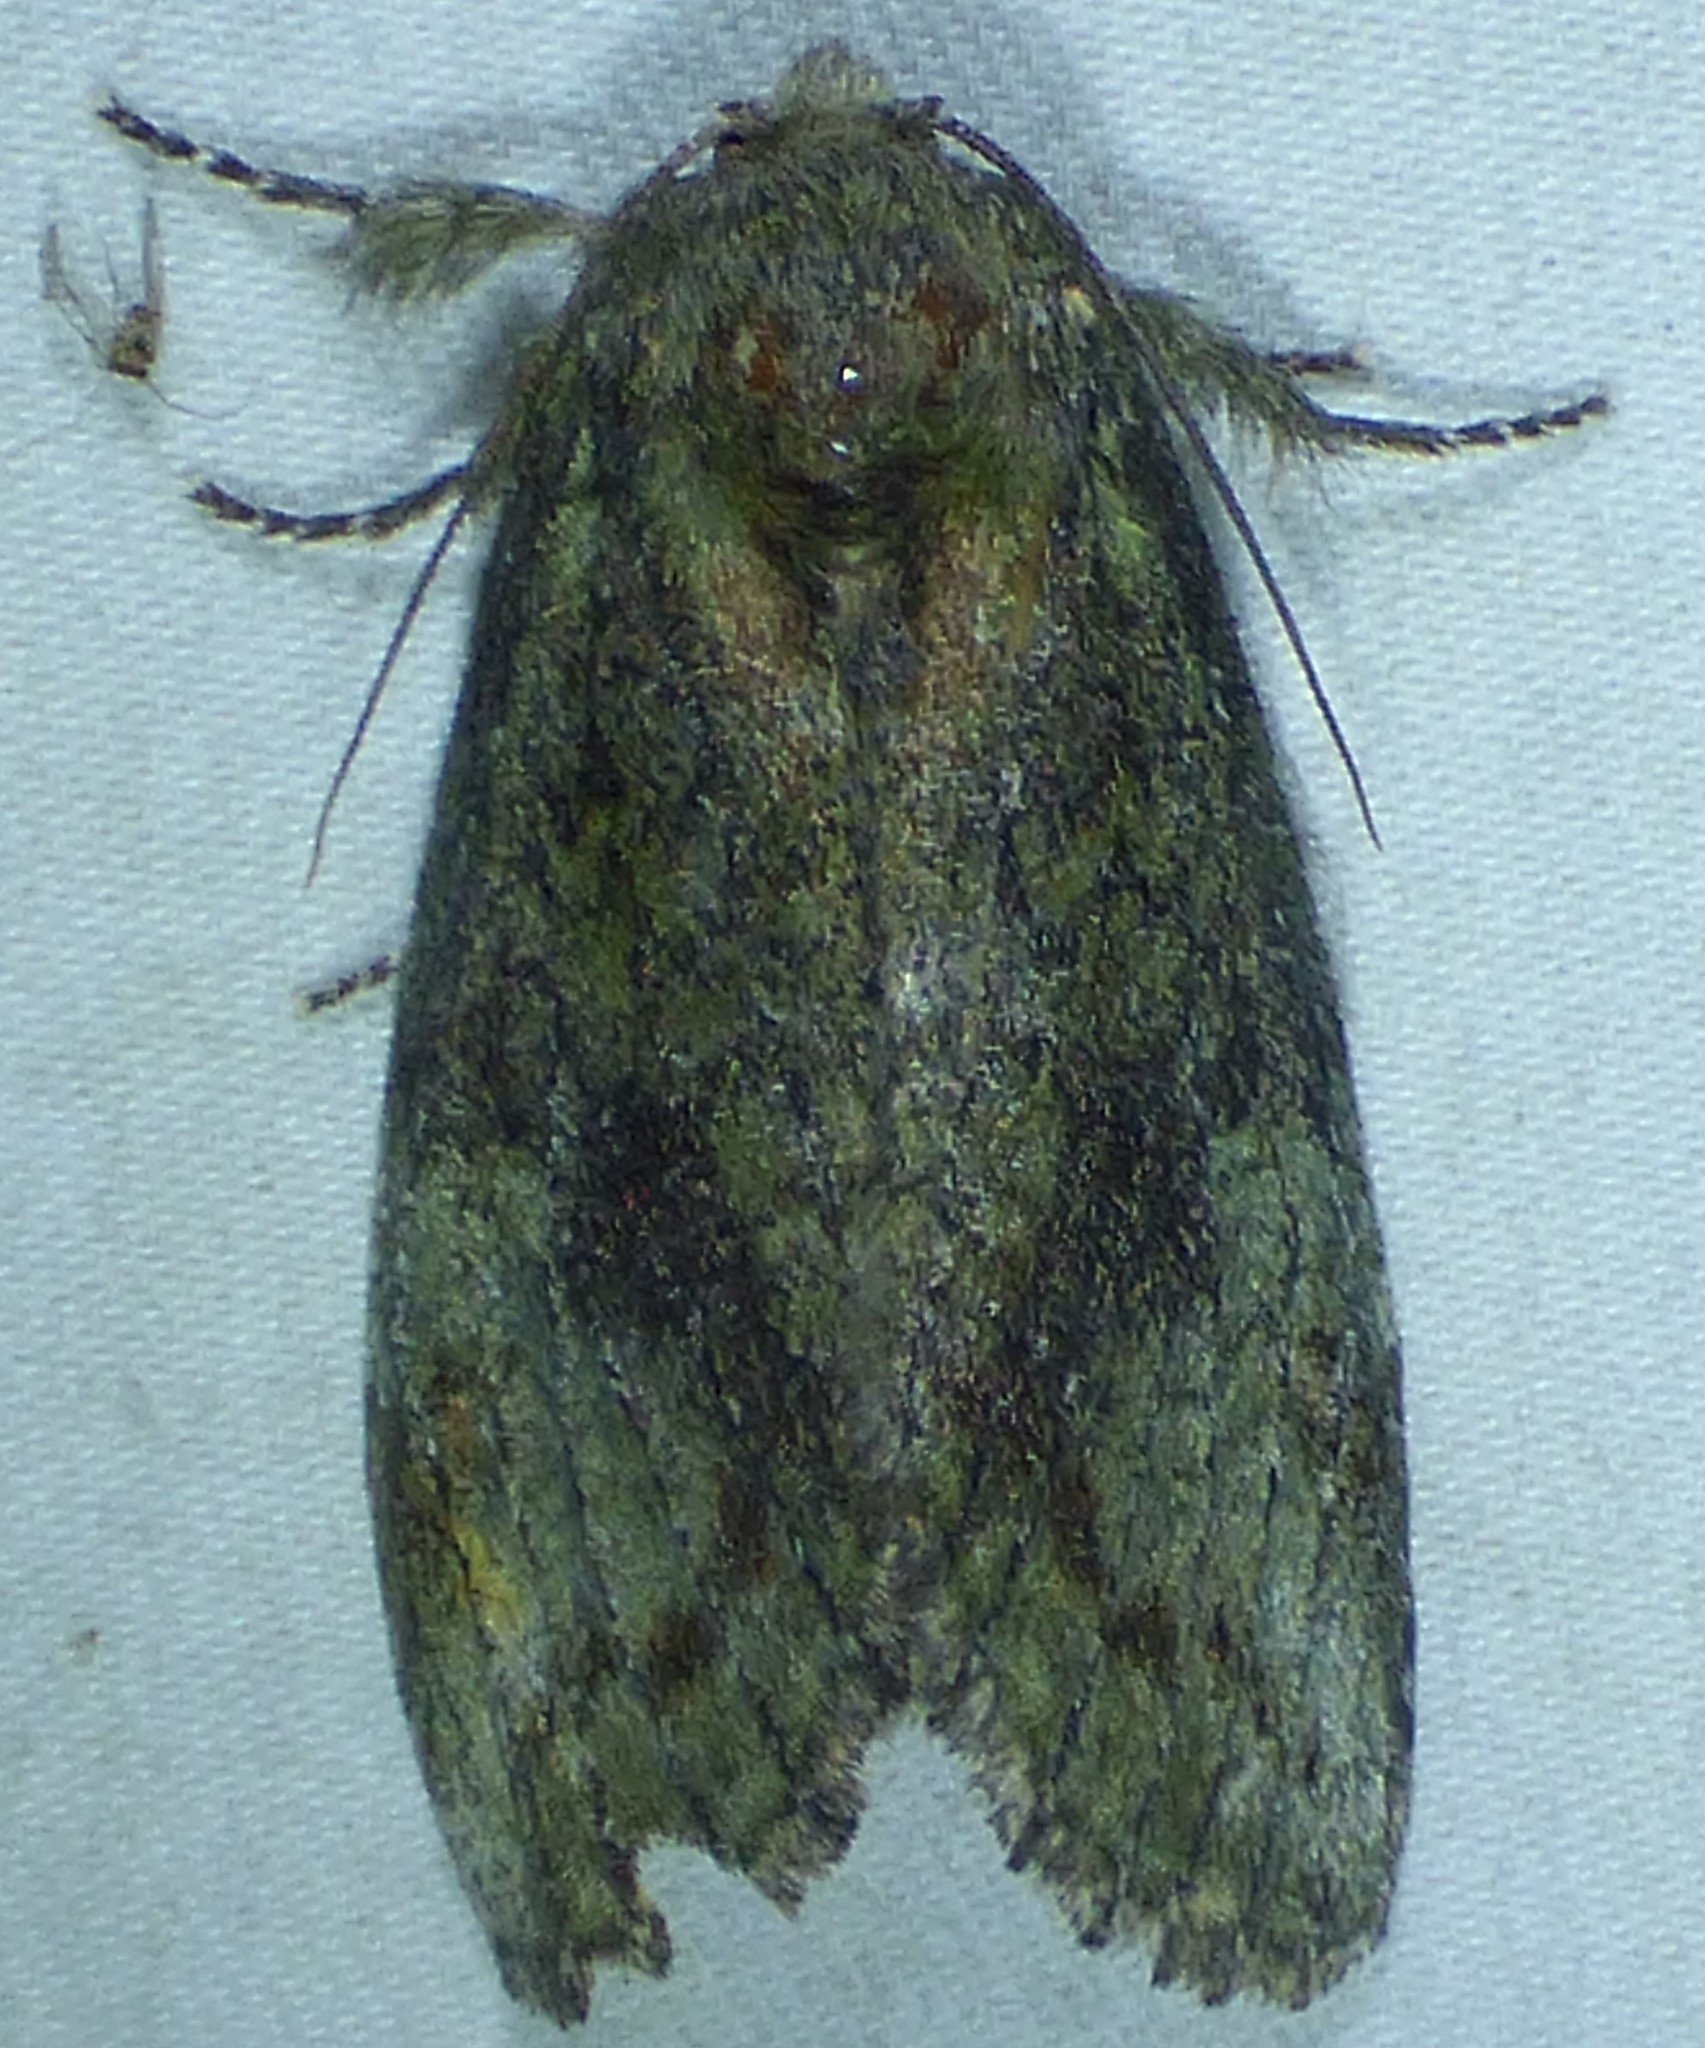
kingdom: Animalia
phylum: Arthropoda
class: Insecta
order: Lepidoptera
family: Notodontidae
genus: Disphragis
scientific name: Disphragis Cecrita biundata
